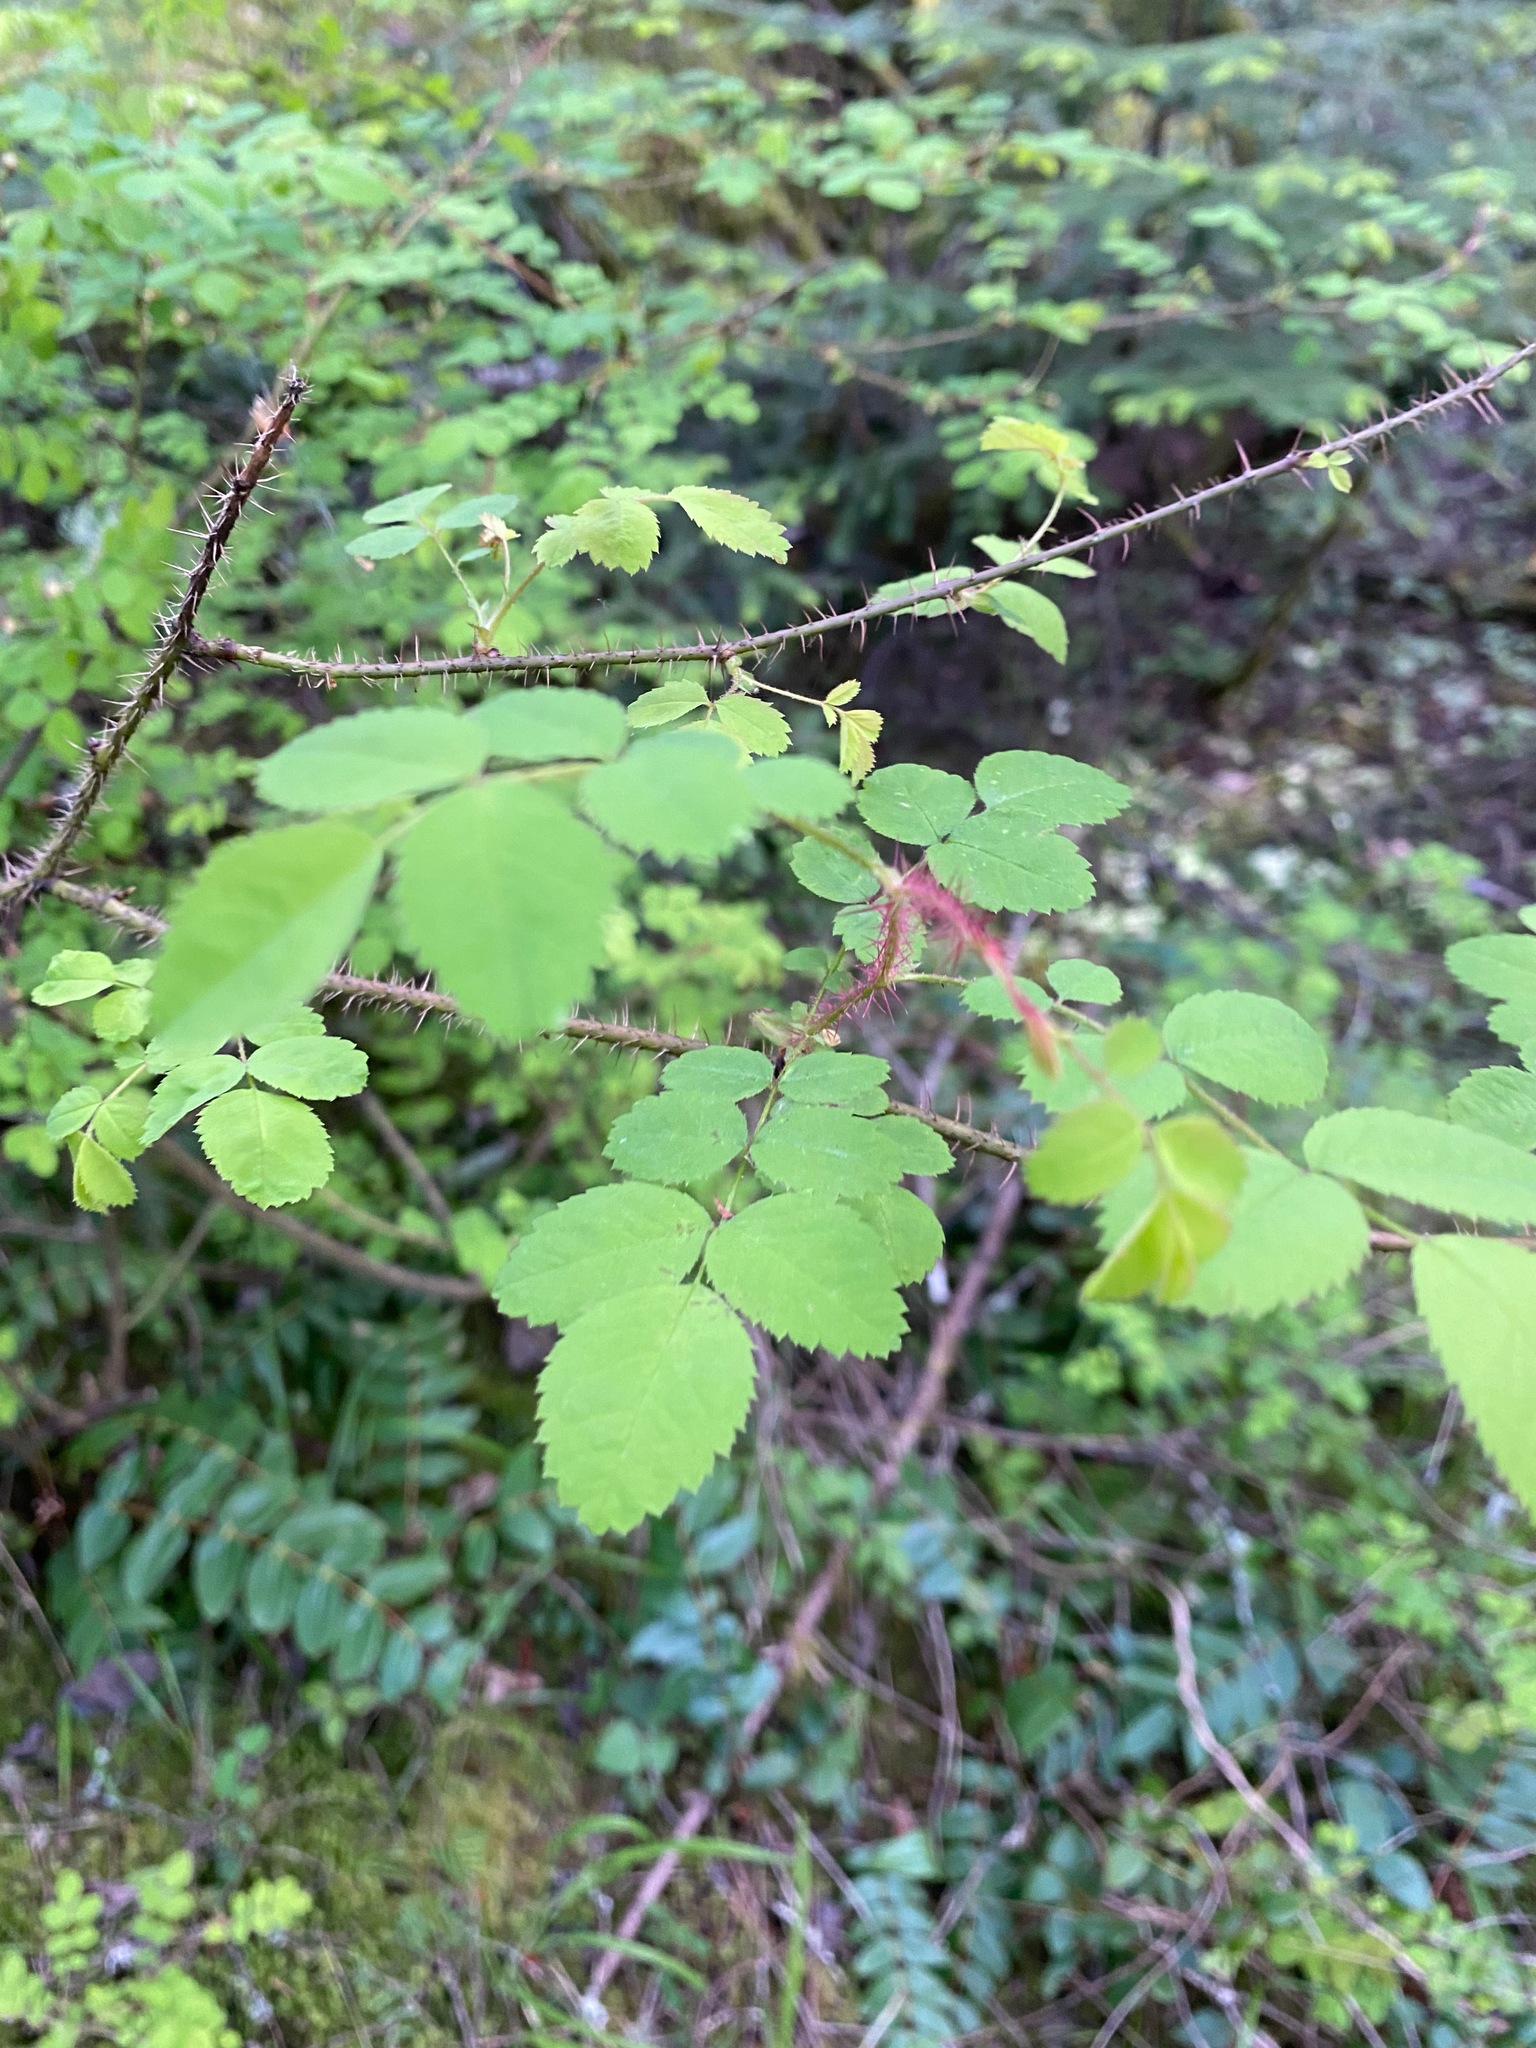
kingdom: Plantae
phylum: Tracheophyta
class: Magnoliopsida
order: Rosales
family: Rosaceae
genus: Rosa
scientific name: Rosa gymnocarpa
